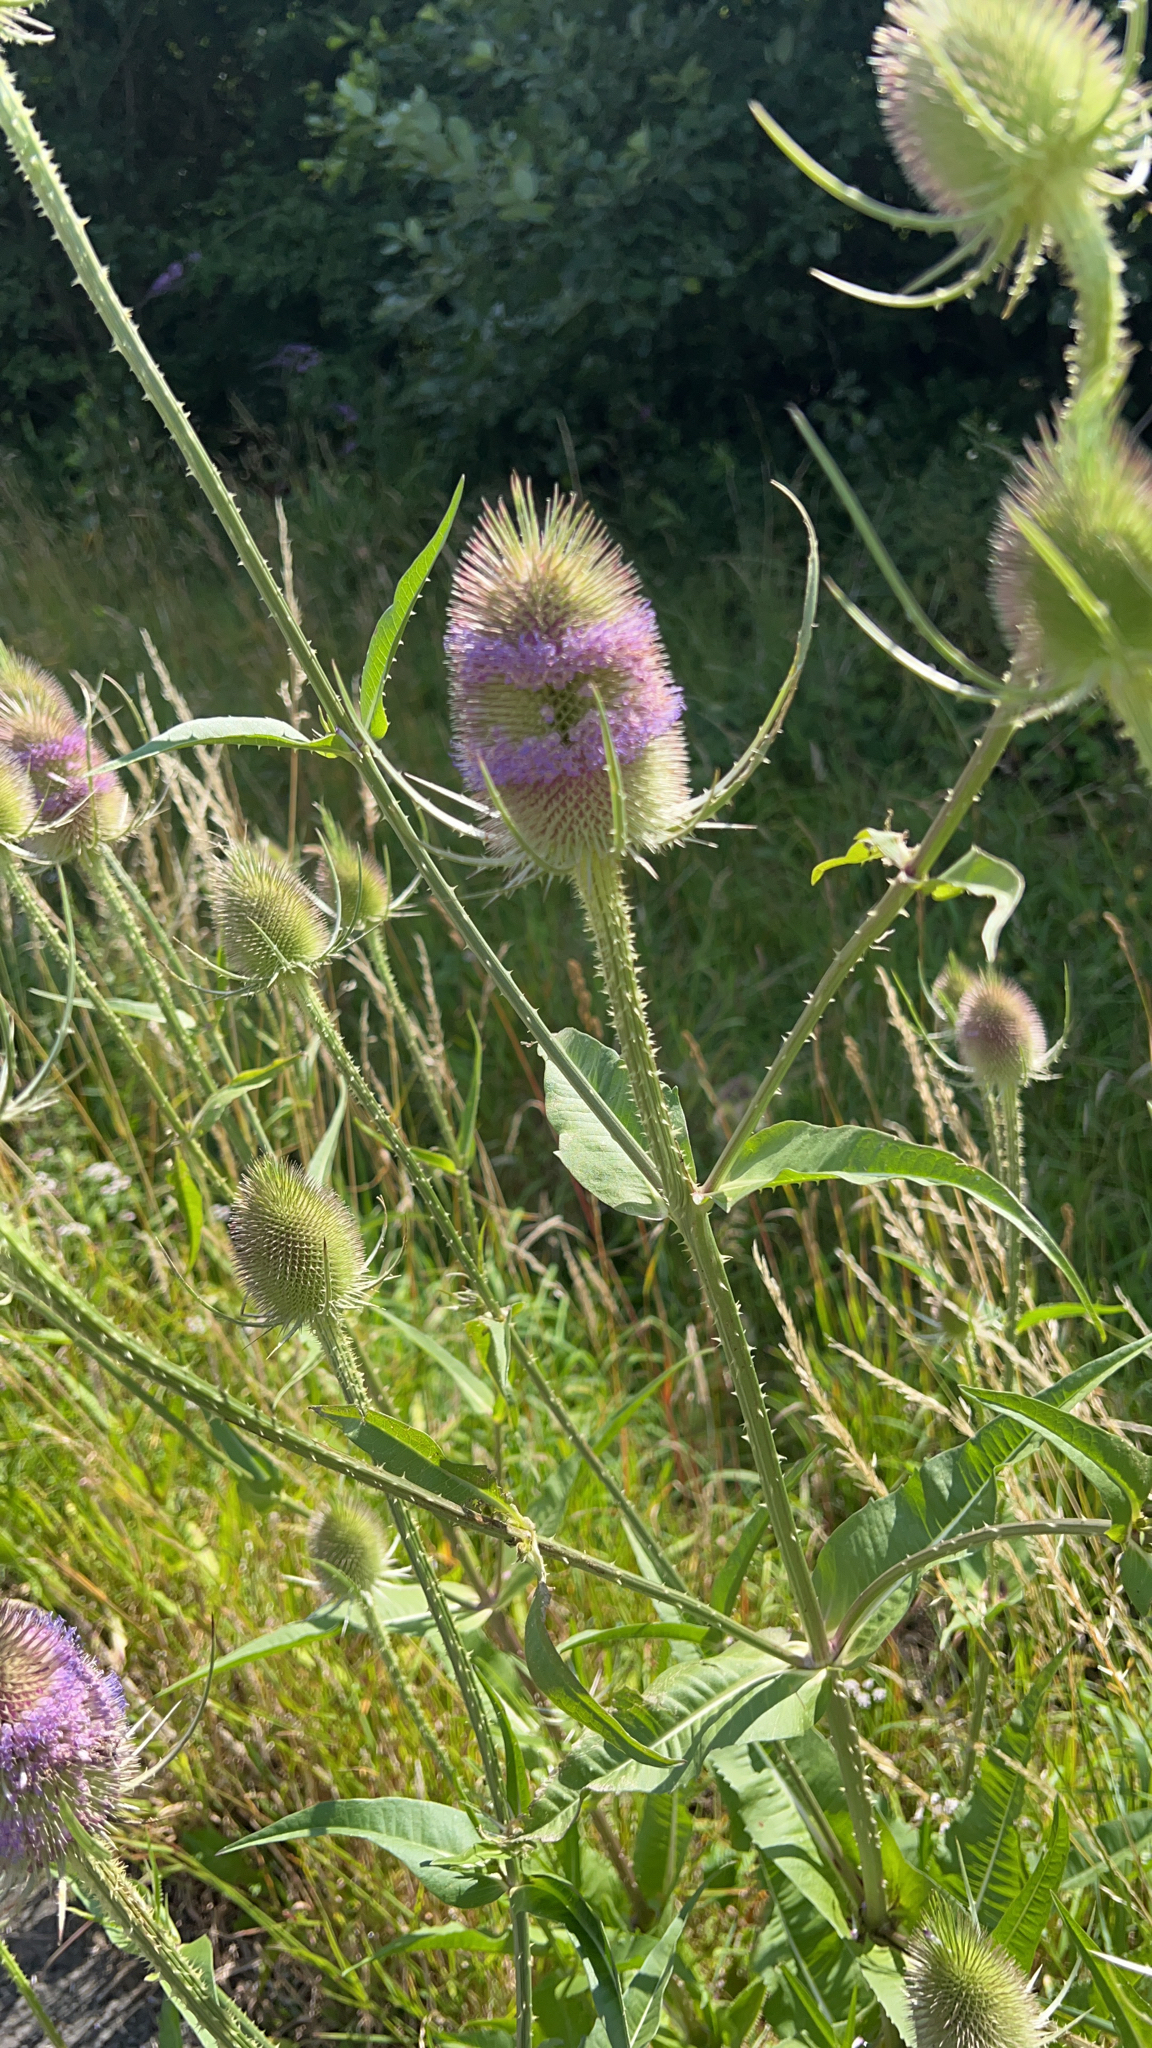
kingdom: Plantae
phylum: Tracheophyta
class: Magnoliopsida
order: Dipsacales
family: Caprifoliaceae
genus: Dipsacus
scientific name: Dipsacus fullonum
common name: Teasel
